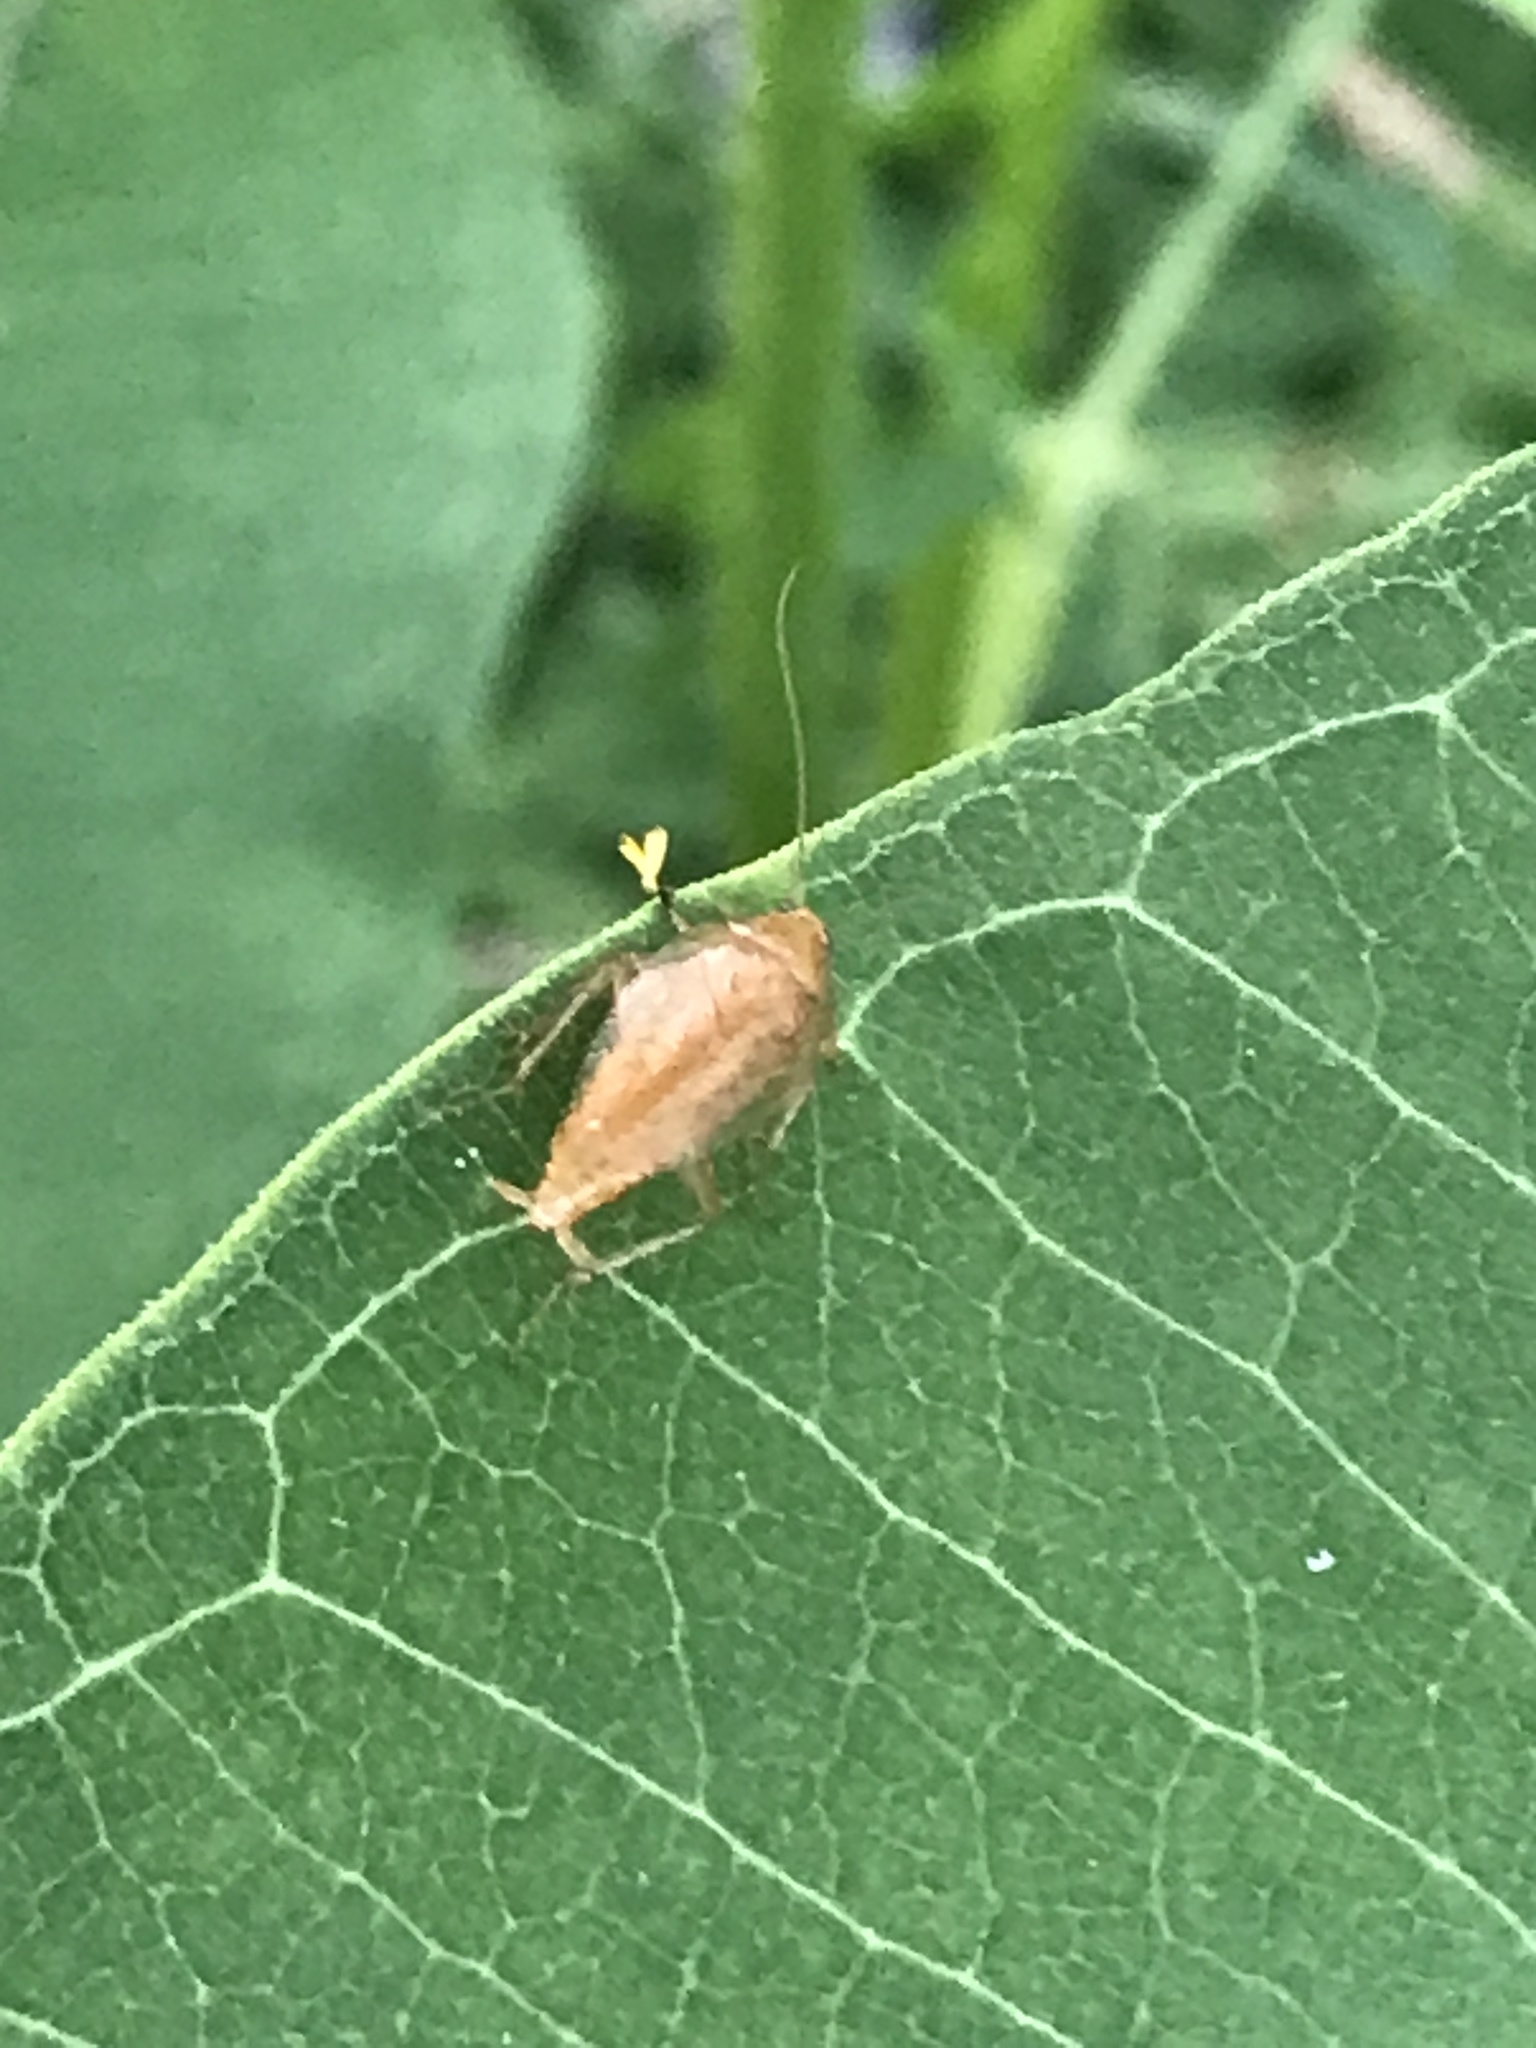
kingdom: Animalia
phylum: Arthropoda
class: Insecta
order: Blattodea
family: Ectobiidae
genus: Ectobius
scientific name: Ectobius pallidus
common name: Tawny cockroach
